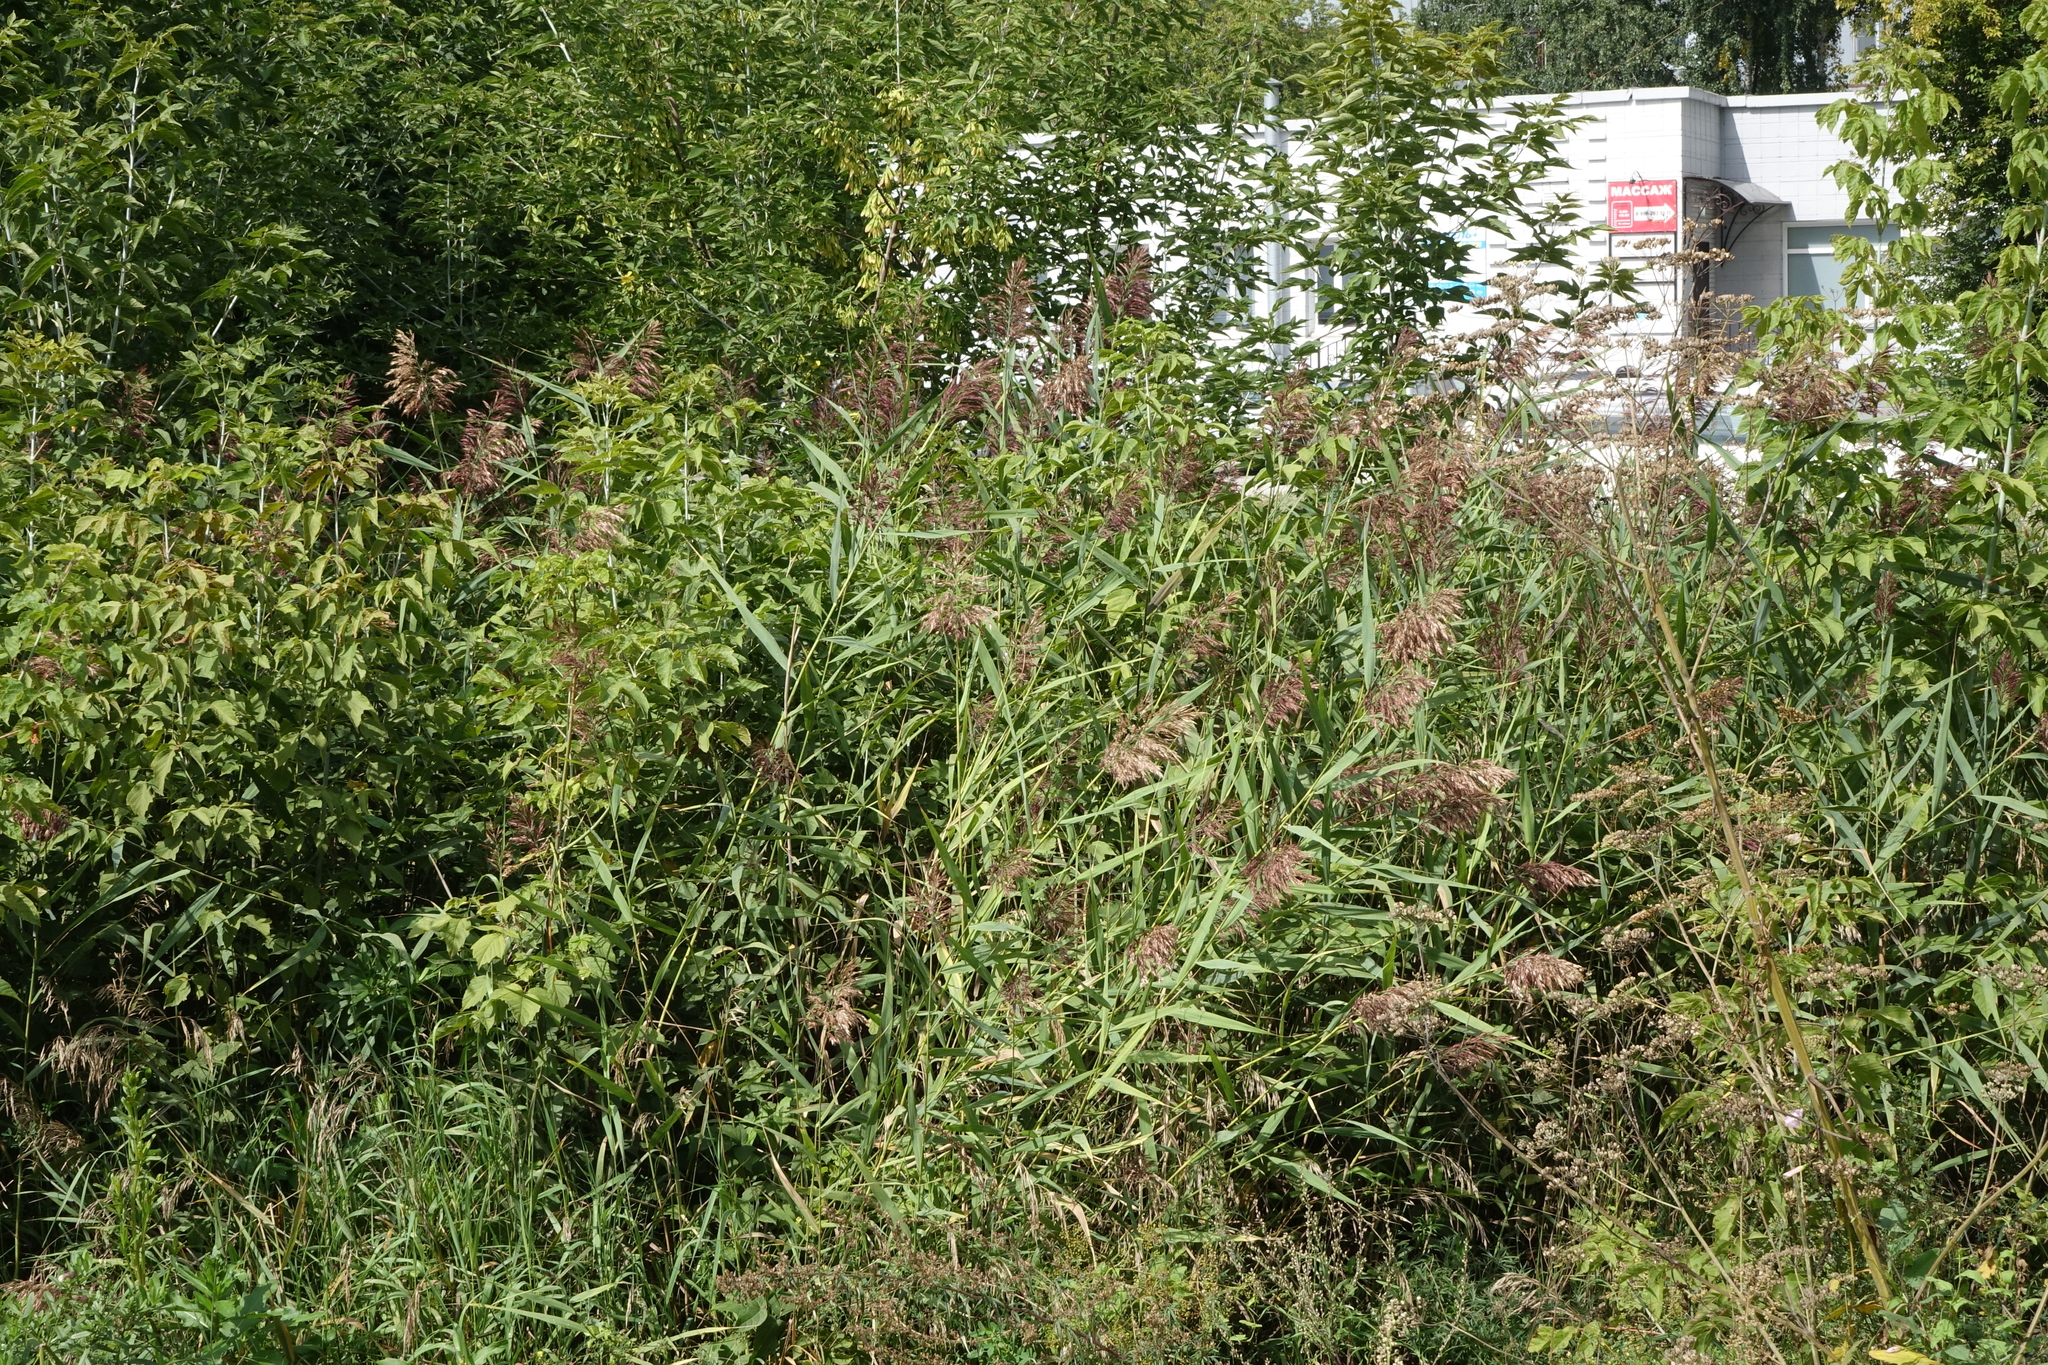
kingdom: Plantae
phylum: Tracheophyta
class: Liliopsida
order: Poales
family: Poaceae
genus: Phragmites
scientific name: Phragmites australis
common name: Common reed
